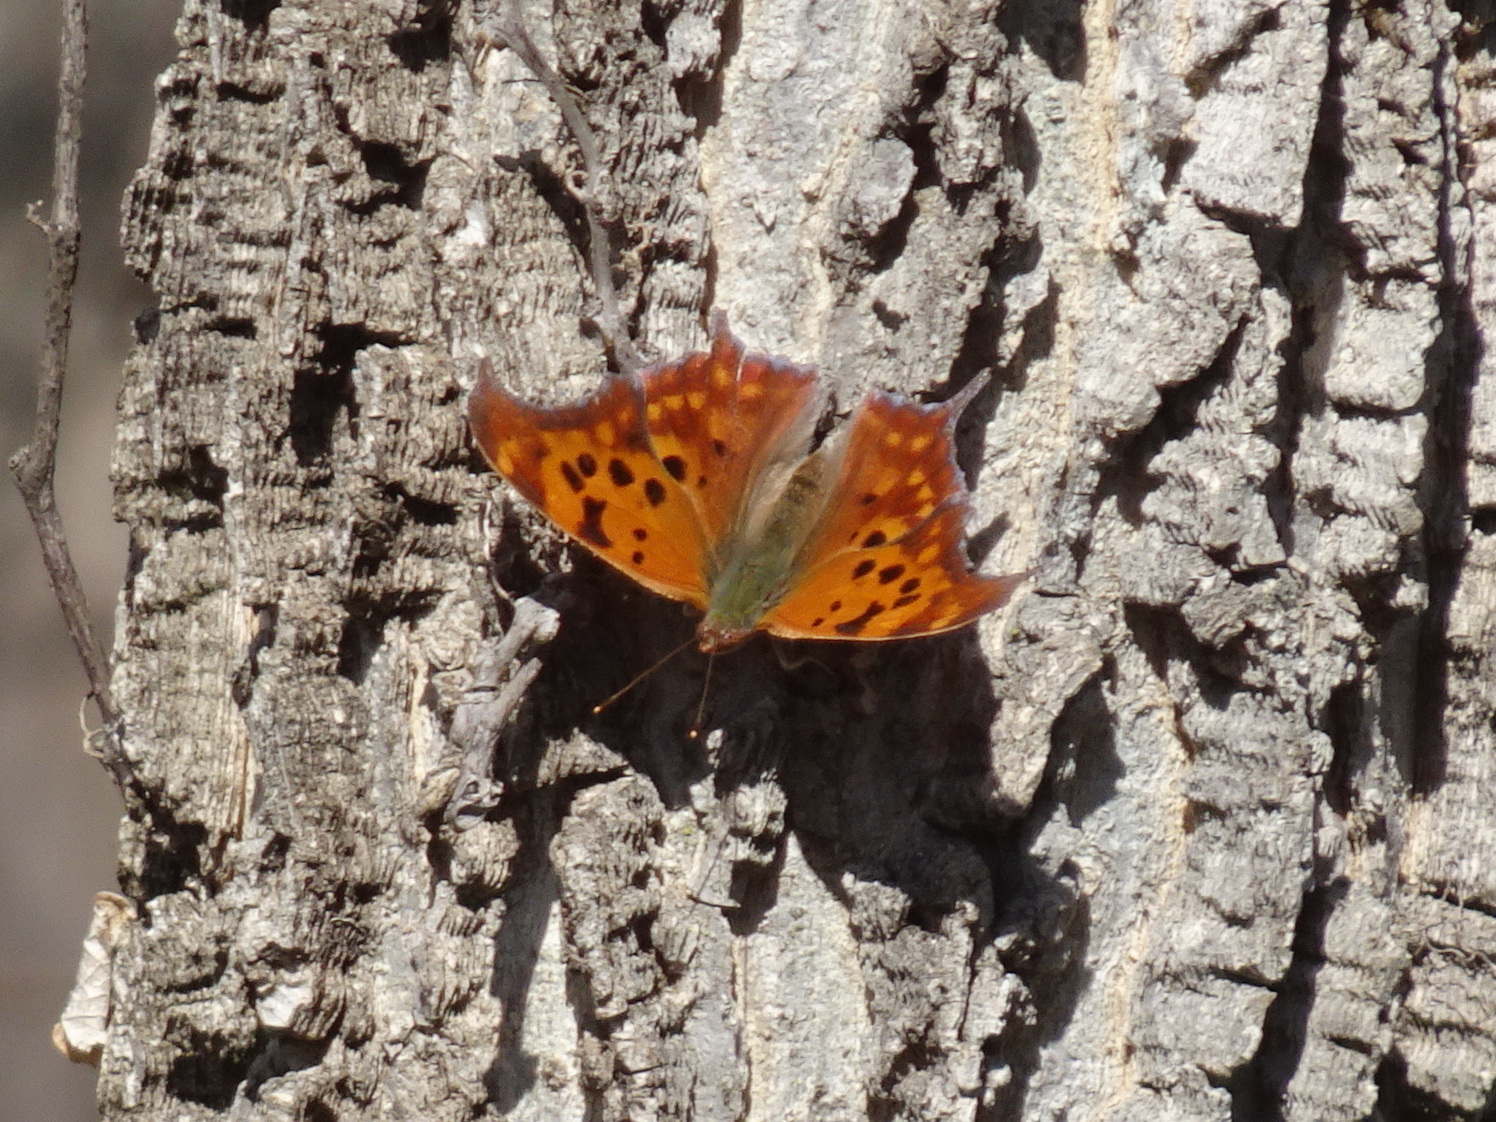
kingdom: Animalia
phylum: Arthropoda
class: Insecta
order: Lepidoptera
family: Nymphalidae
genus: Polygonia
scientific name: Polygonia interrogationis
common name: Question mark
